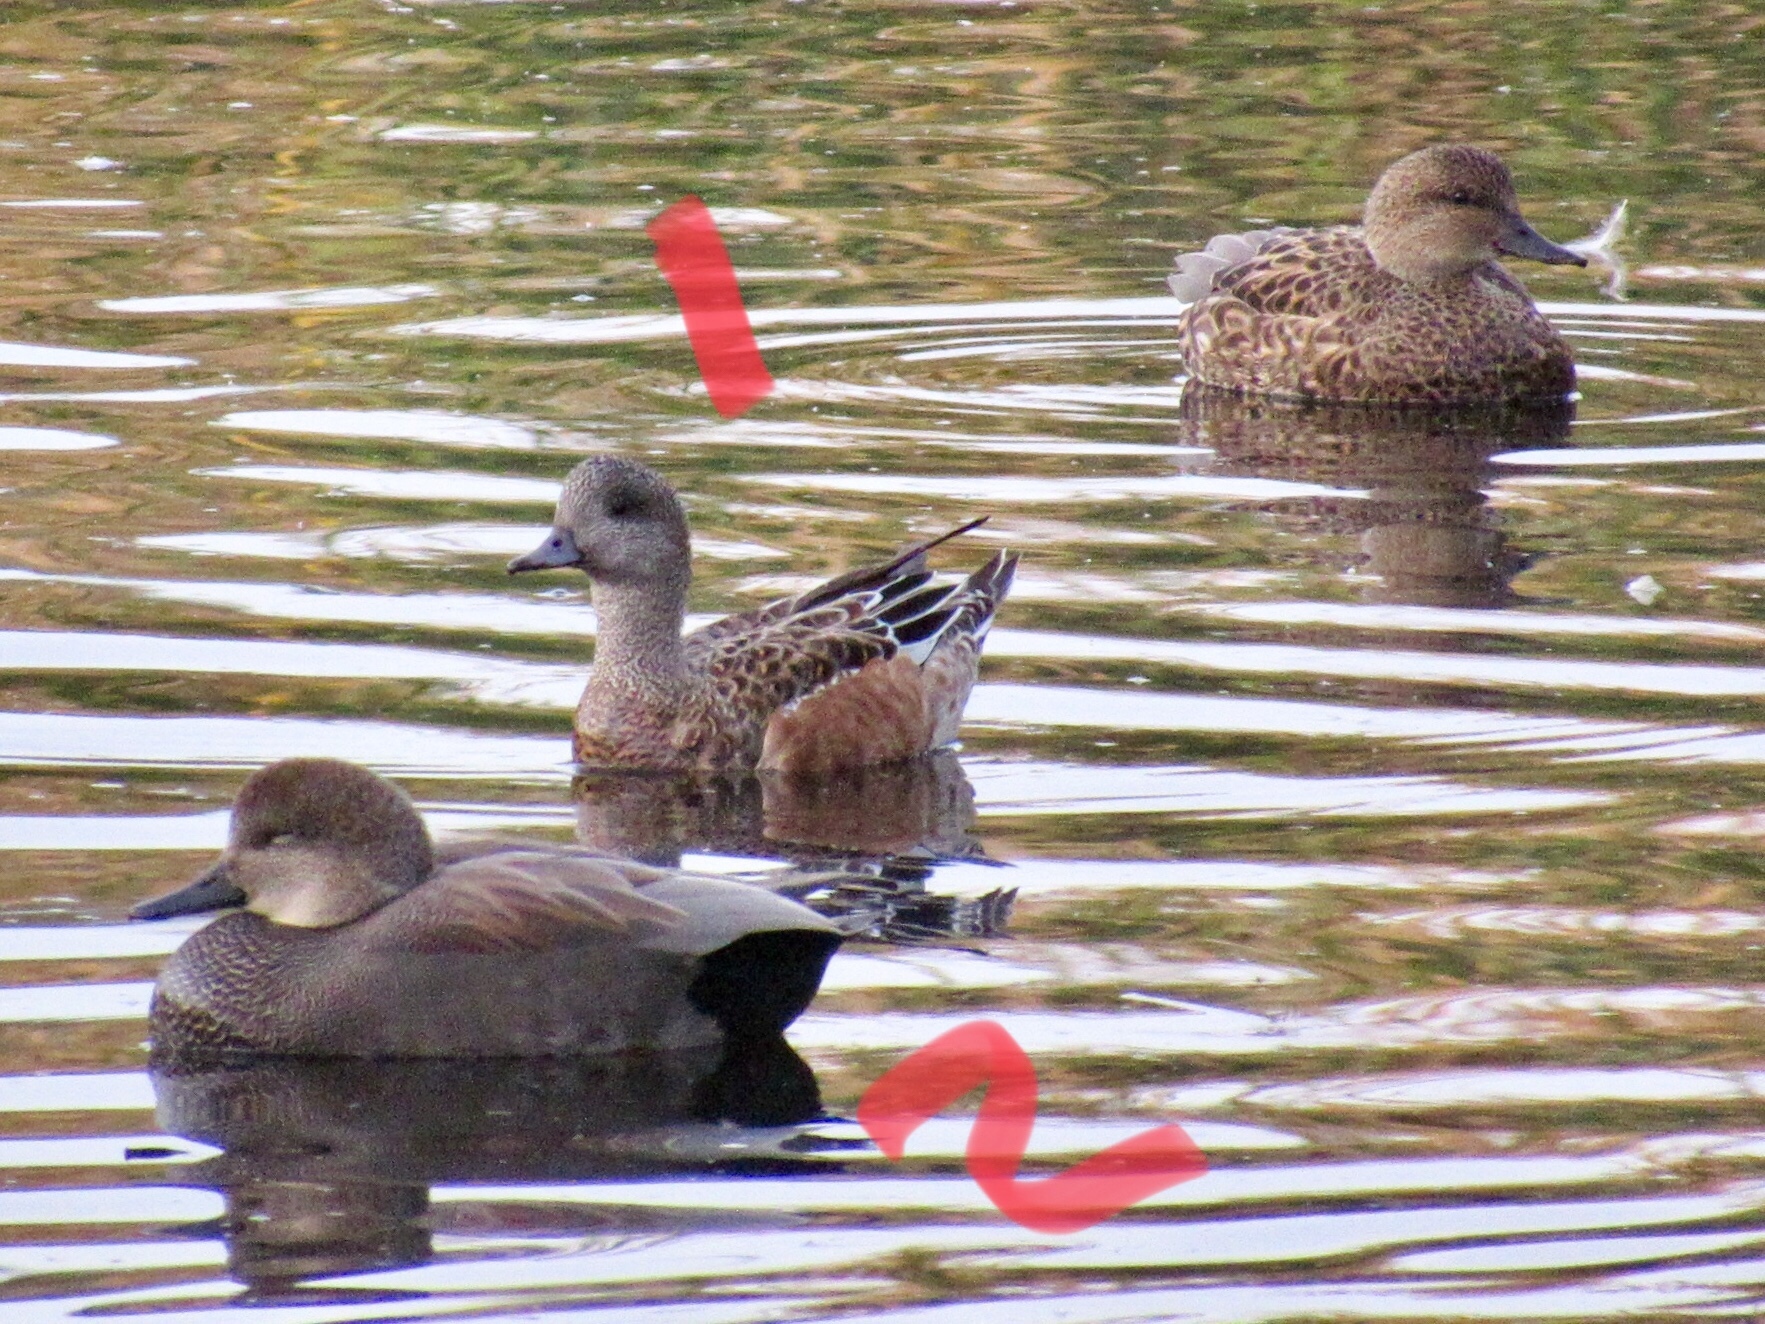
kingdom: Animalia
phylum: Chordata
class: Aves
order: Anseriformes
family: Anatidae
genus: Mareca
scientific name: Mareca strepera
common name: Gadwall
